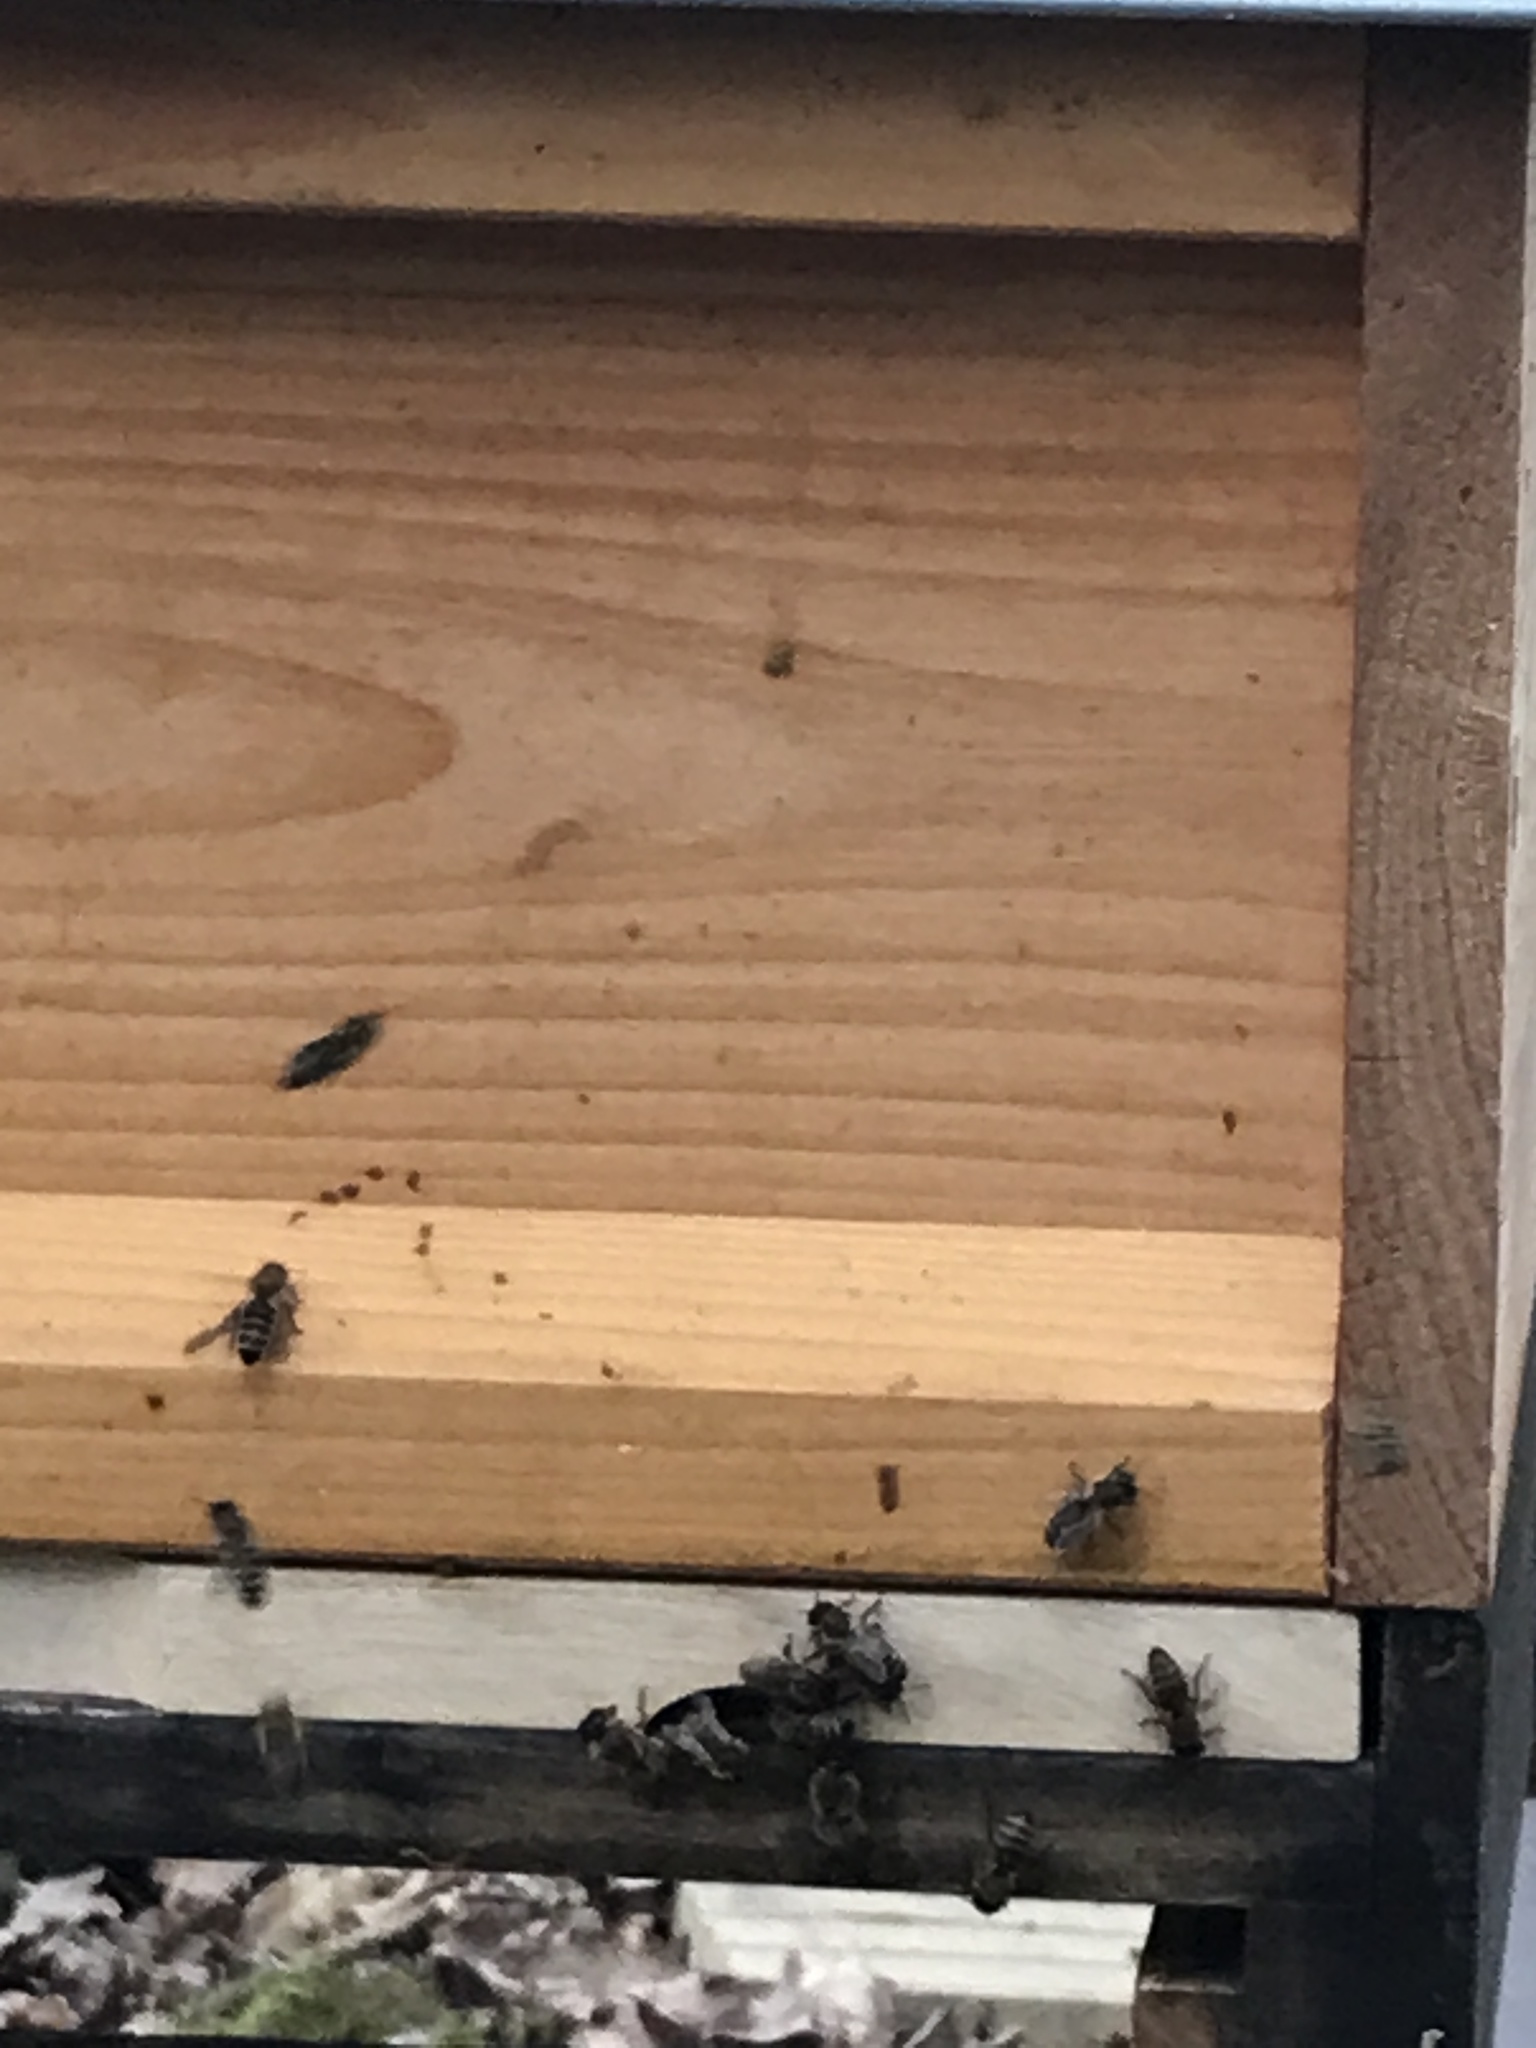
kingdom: Animalia
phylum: Arthropoda
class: Insecta
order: Hymenoptera
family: Apidae
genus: Apis
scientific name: Apis mellifera
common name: Honey bee
